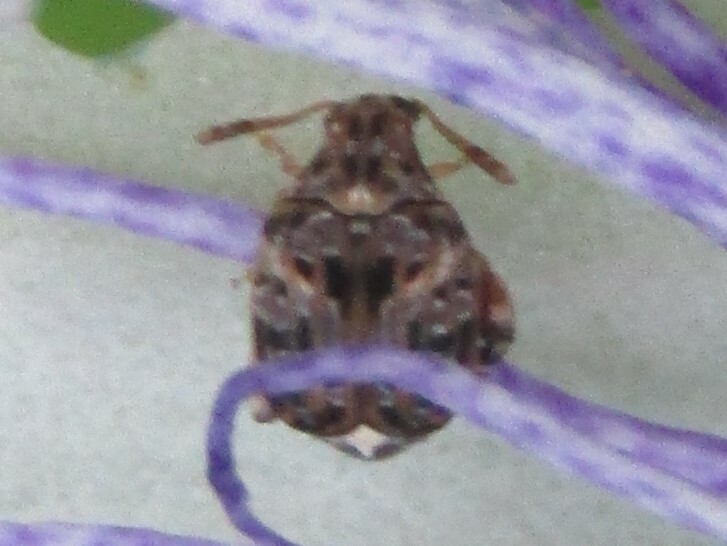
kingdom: Animalia
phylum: Arthropoda
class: Insecta
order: Coleoptera
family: Chrysomelidae
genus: Gibbobruchus
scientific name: Gibbobruchus mimus
